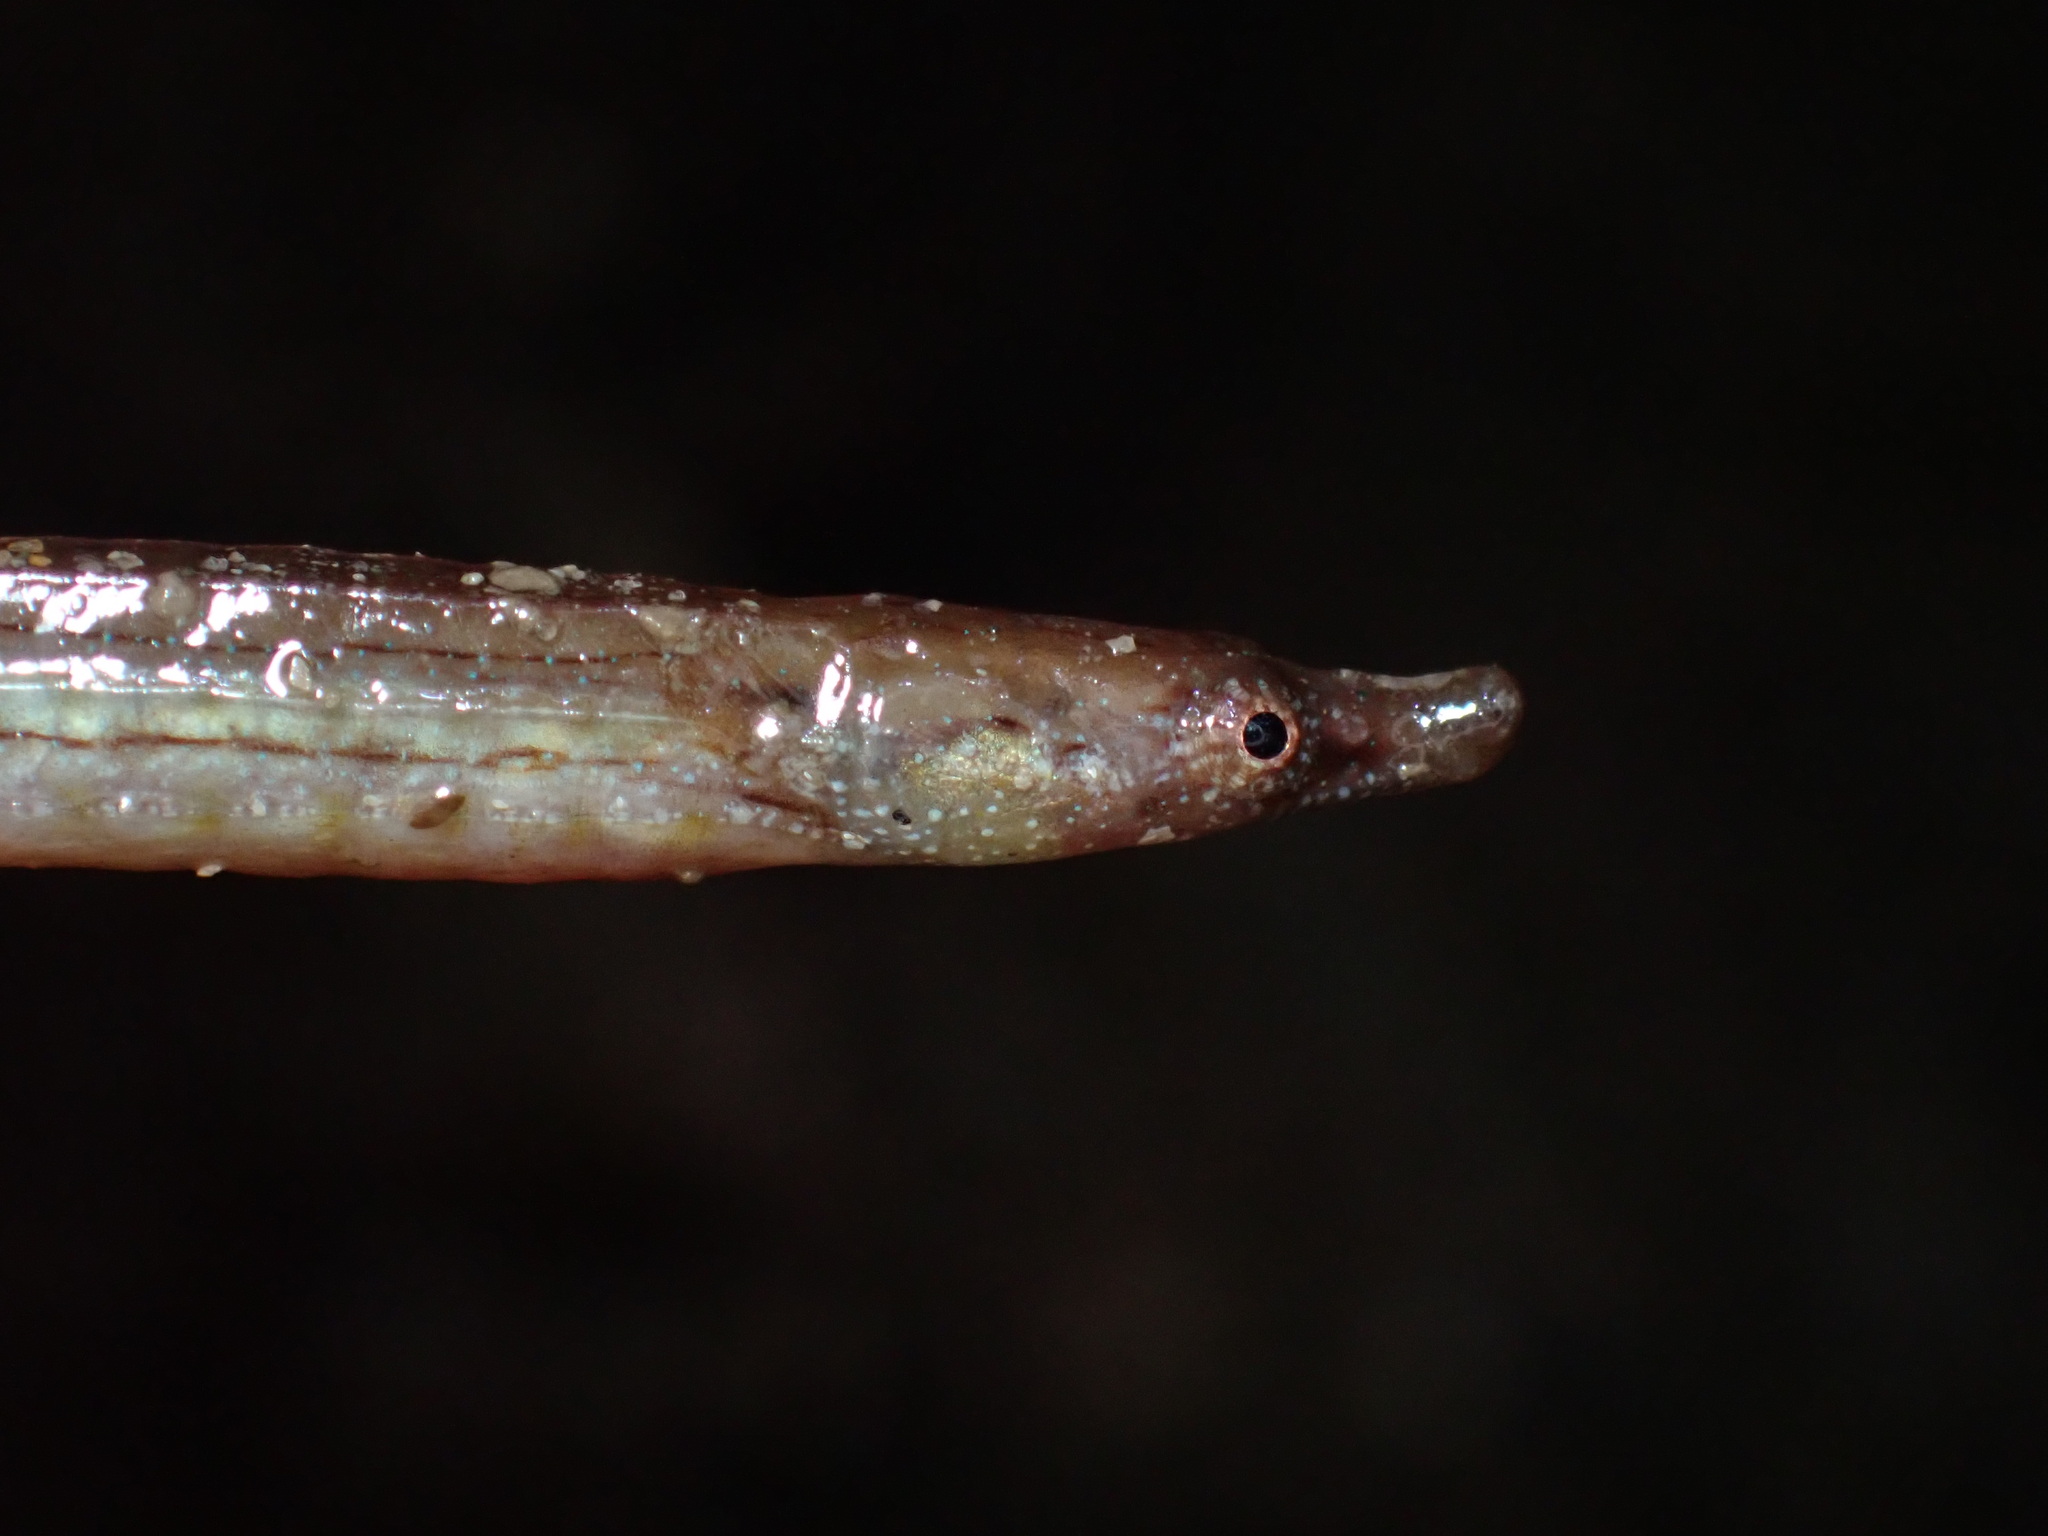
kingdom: Animalia
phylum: Chordata
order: Syngnathiformes
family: Syngnathidae
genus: Syngnathus
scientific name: Syngnathus californiensis
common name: Great pipefish
